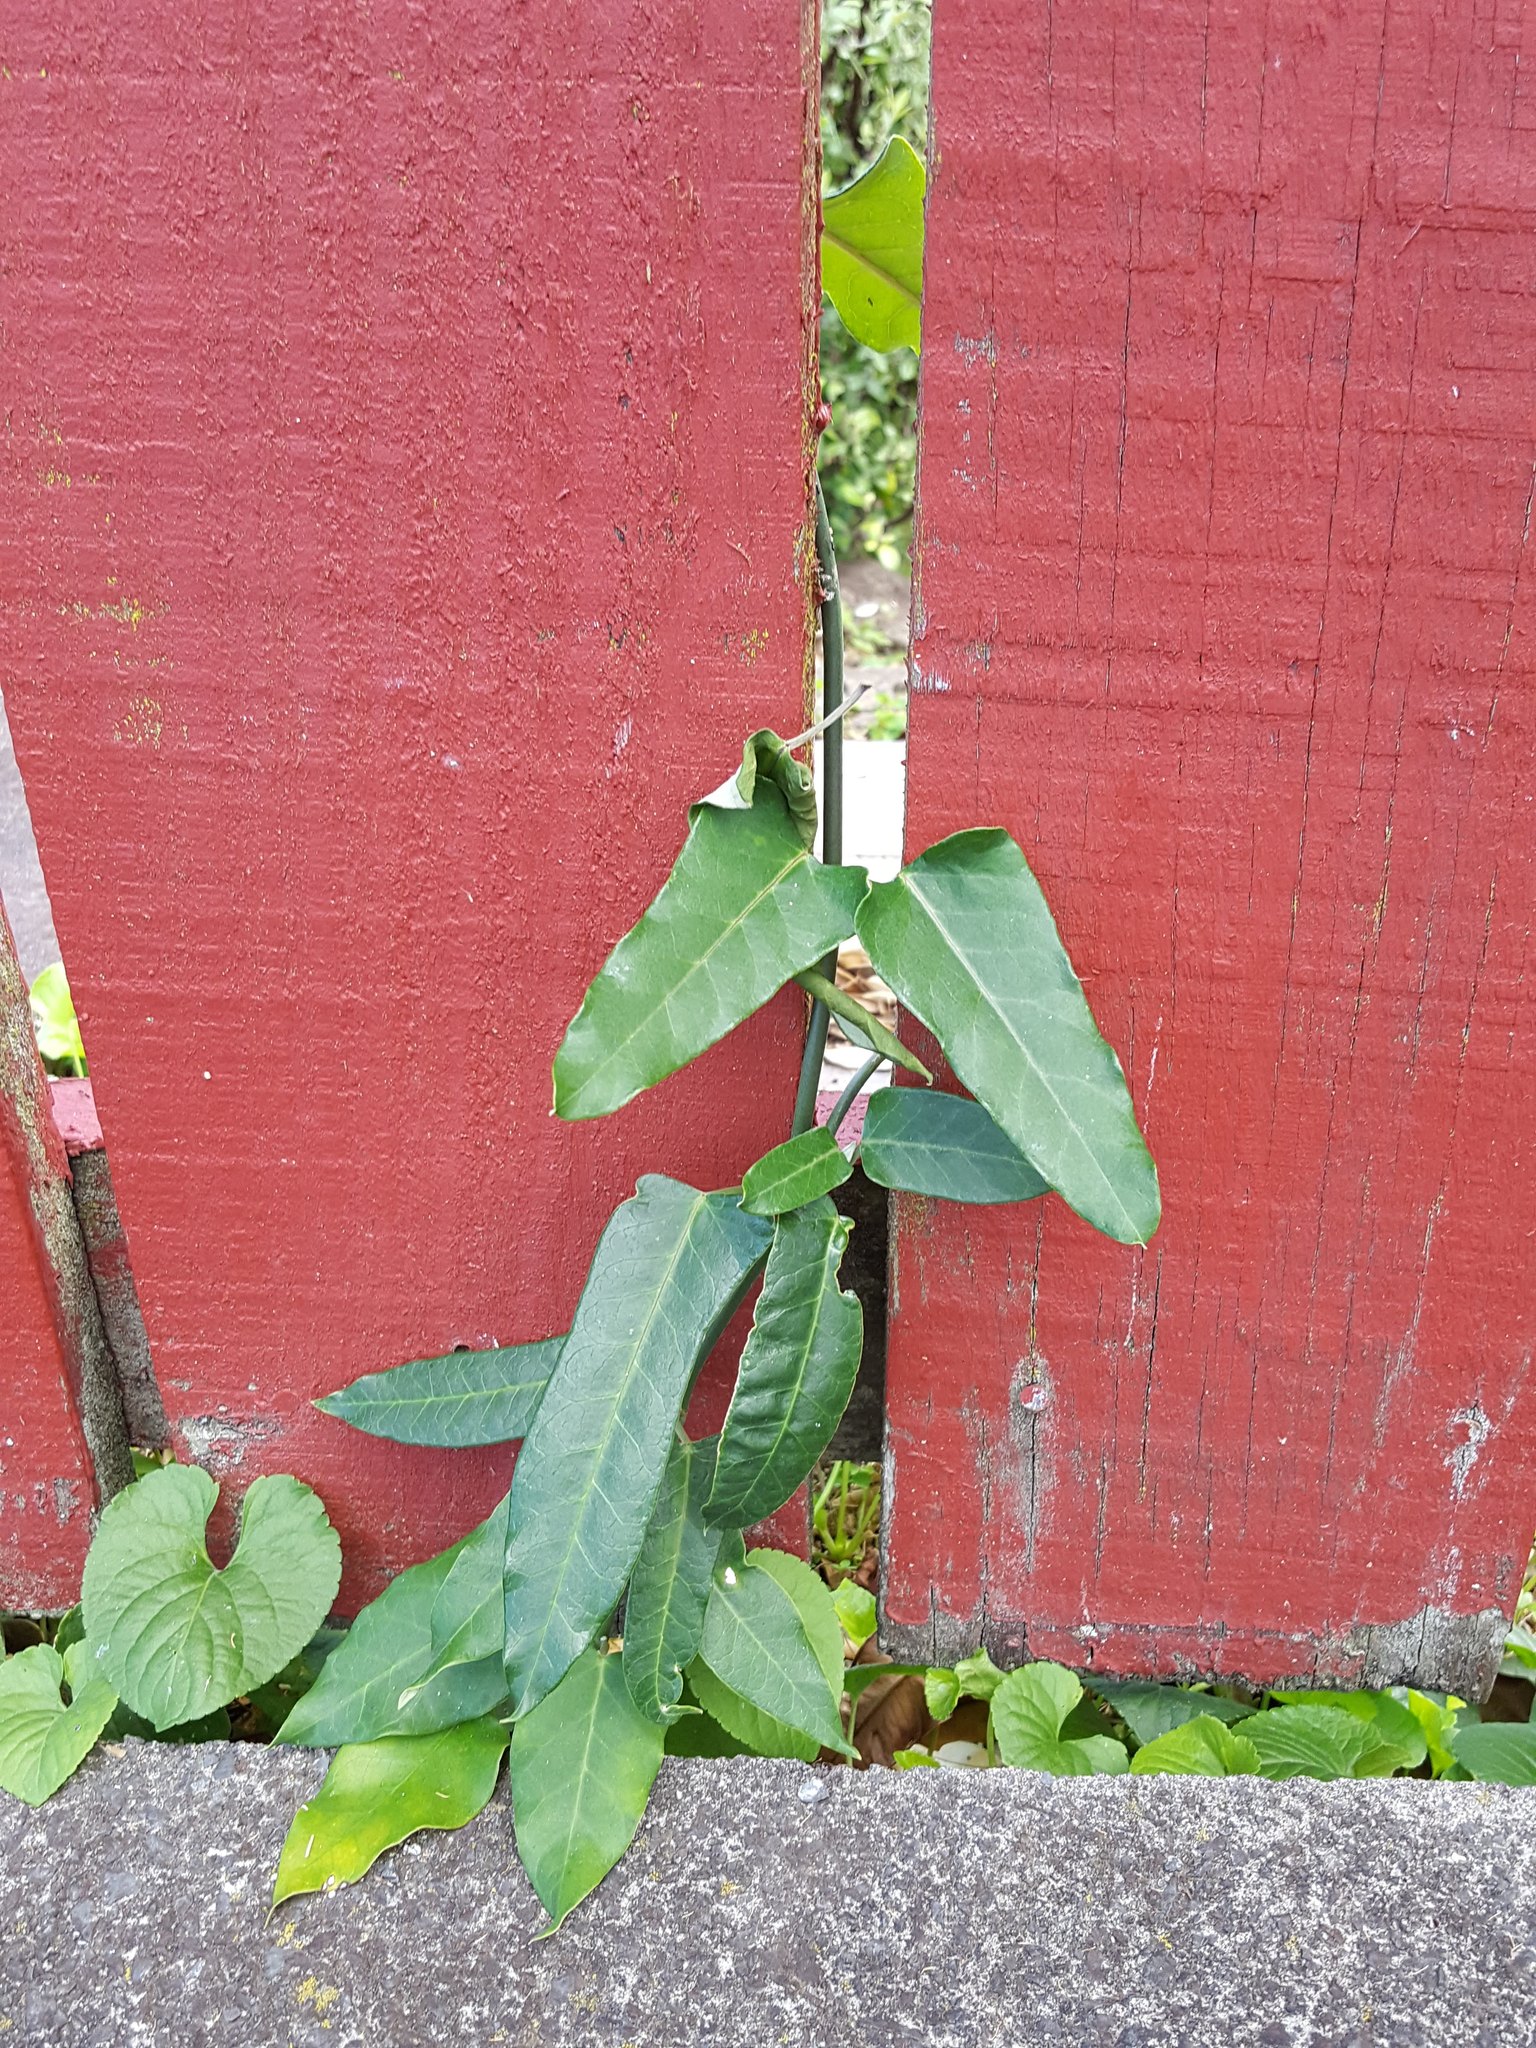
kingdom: Plantae
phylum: Tracheophyta
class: Magnoliopsida
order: Gentianales
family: Apocynaceae
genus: Araujia
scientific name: Araujia sericifera
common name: White bladderflower
